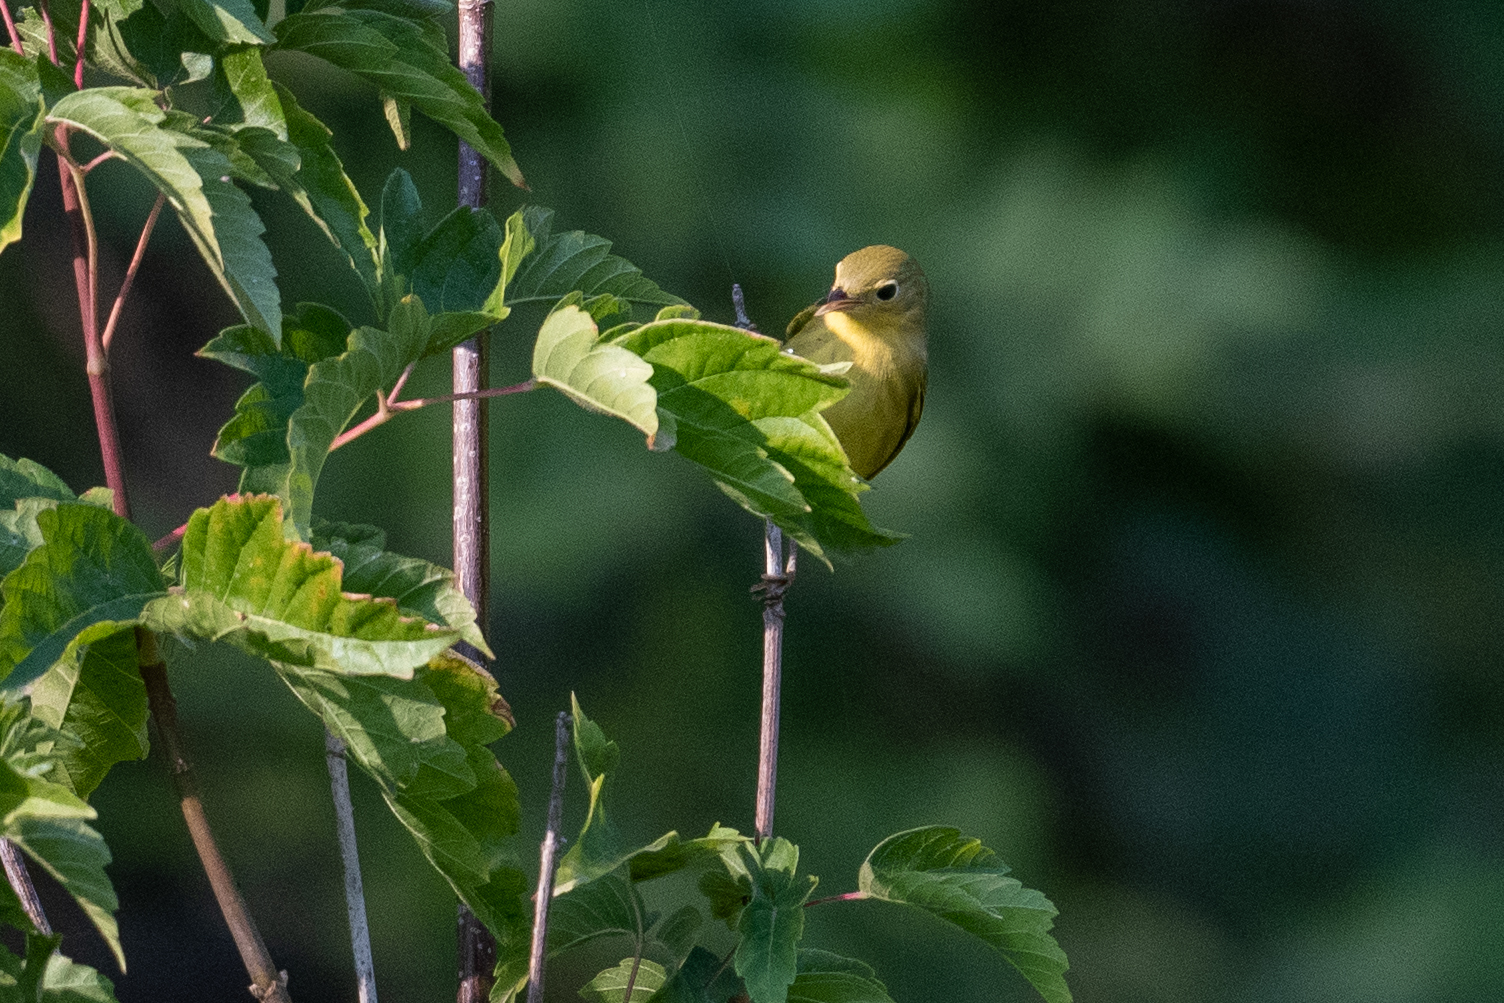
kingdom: Animalia
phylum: Chordata
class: Aves
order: Passeriformes
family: Parulidae
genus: Setophaga
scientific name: Setophaga petechia
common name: Yellow warbler
